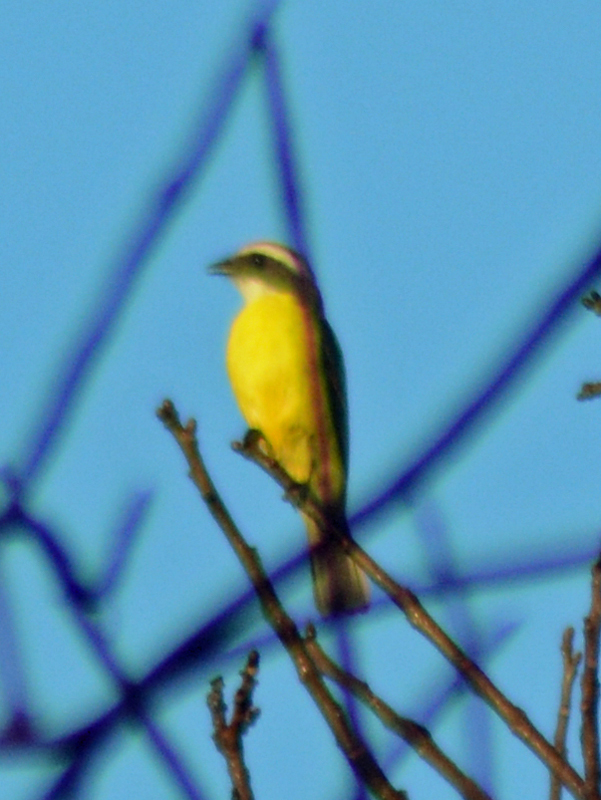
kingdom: Animalia
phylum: Chordata
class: Aves
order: Passeriformes
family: Tyrannidae
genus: Myiozetetes
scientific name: Myiozetetes similis
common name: Social flycatcher
